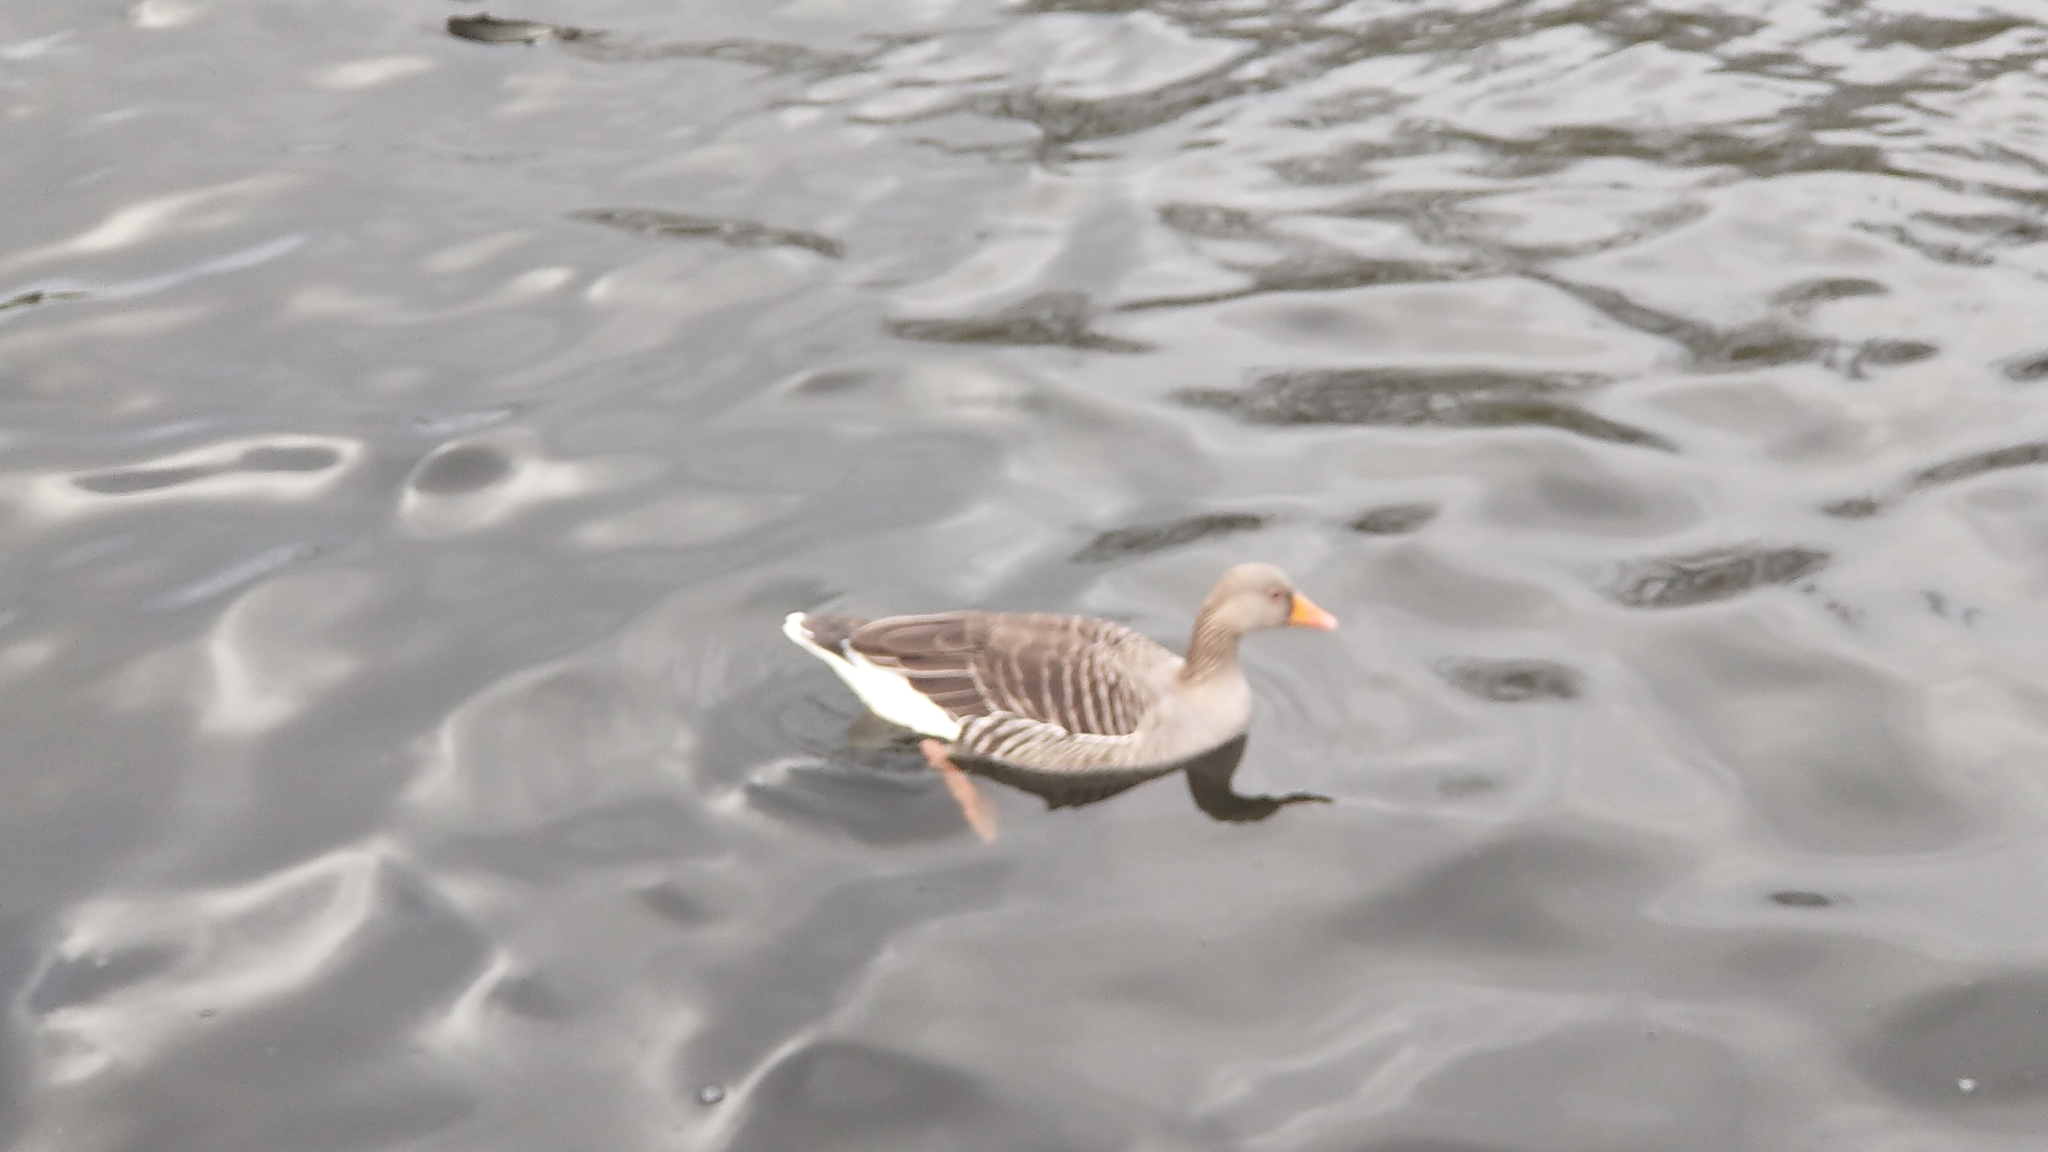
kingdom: Animalia
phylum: Chordata
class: Aves
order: Anseriformes
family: Anatidae
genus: Anser
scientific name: Anser anser
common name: Greylag goose
